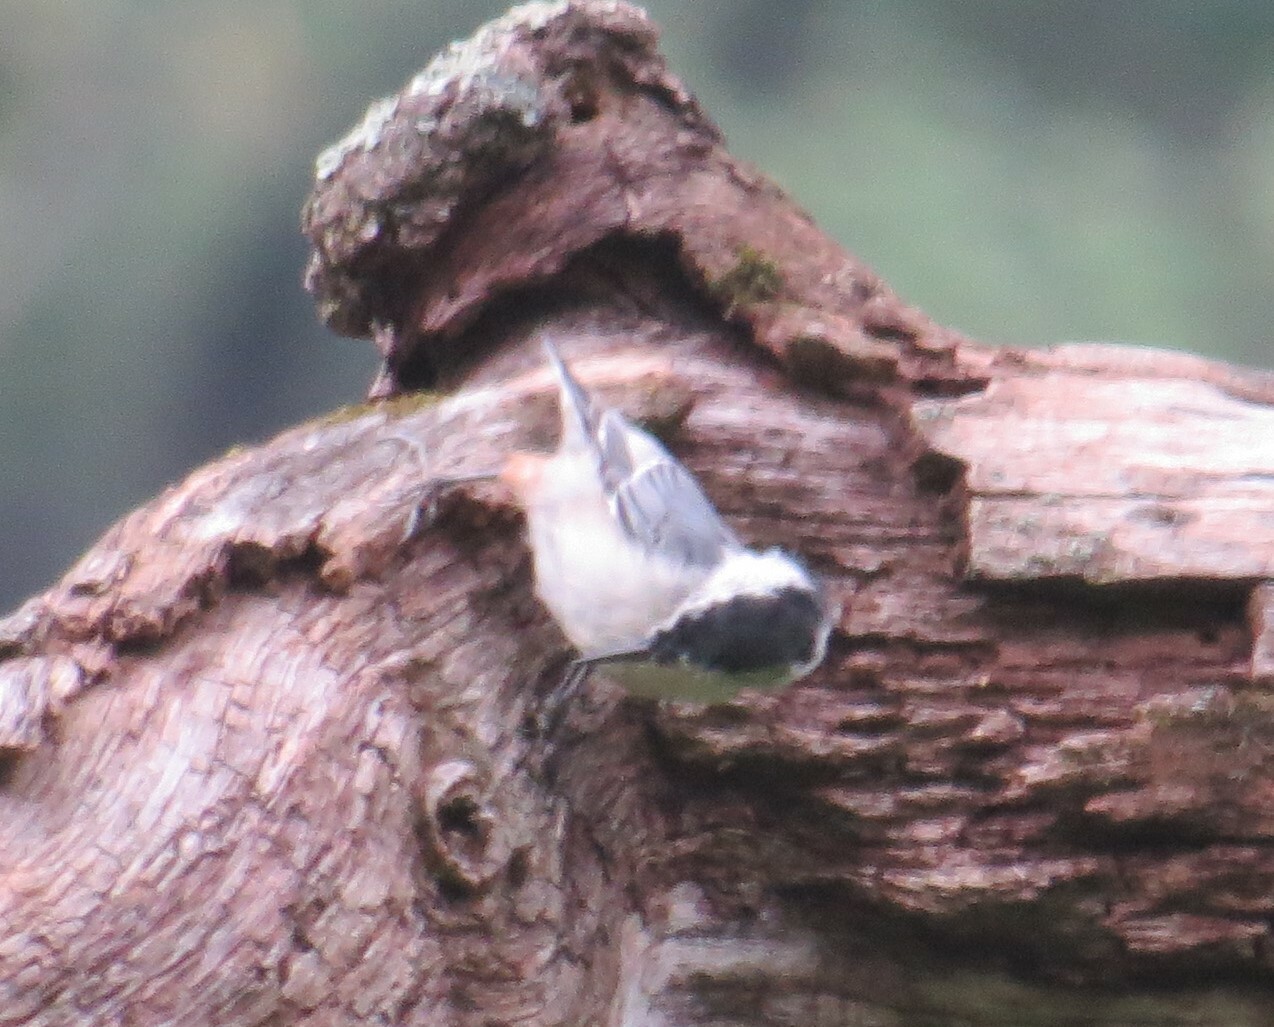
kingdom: Animalia
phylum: Chordata
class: Aves
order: Passeriformes
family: Sittidae
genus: Sitta
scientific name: Sitta carolinensis
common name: White-breasted nuthatch
